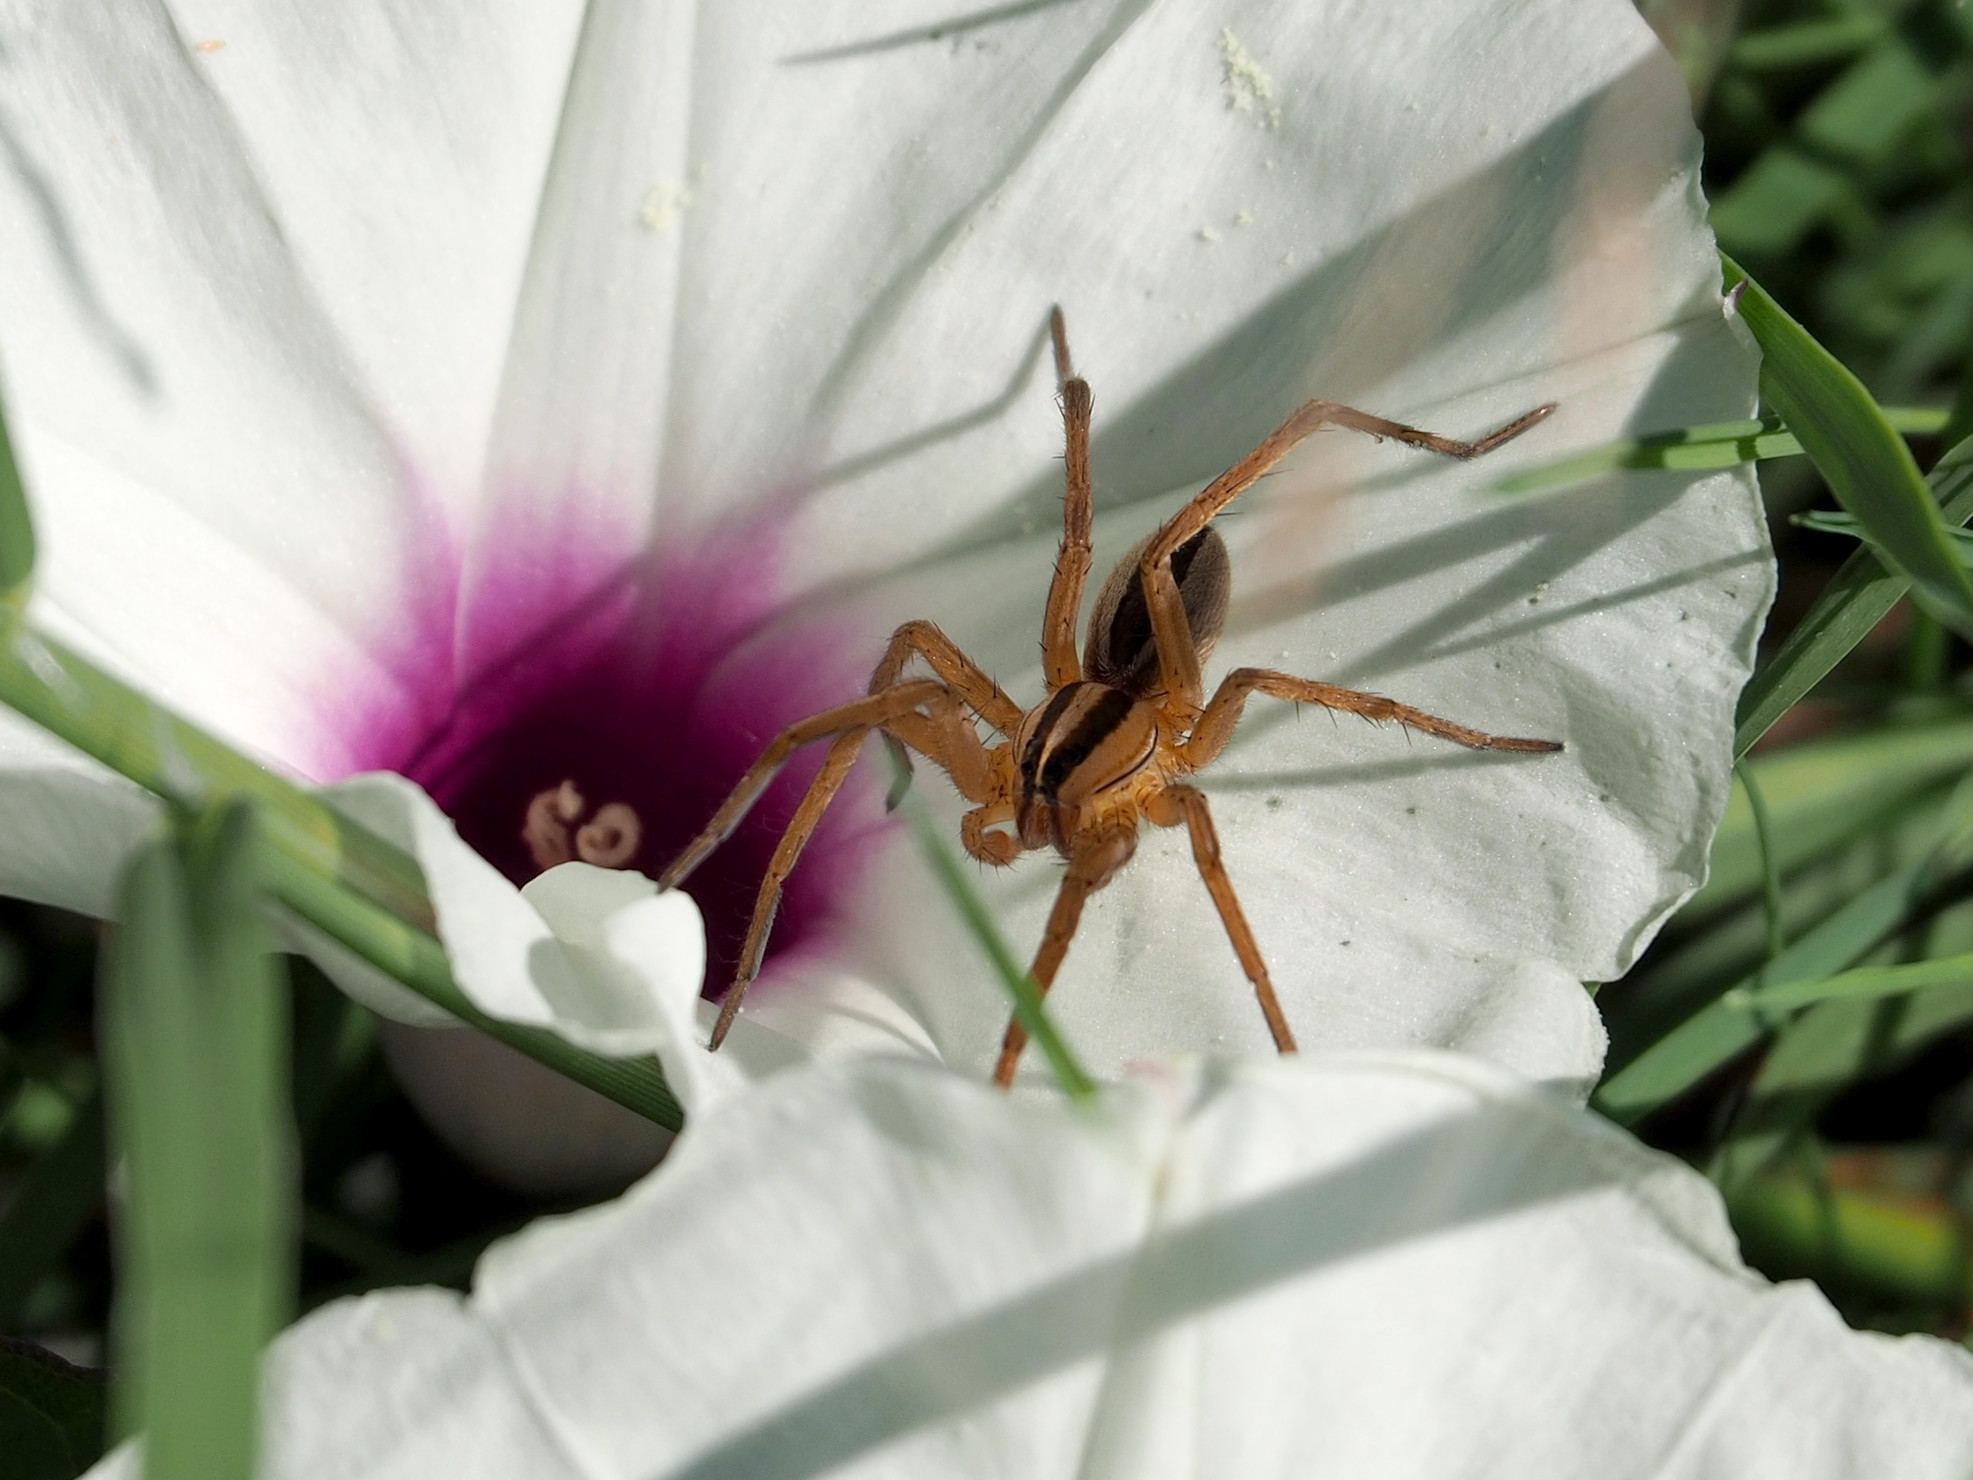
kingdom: Animalia
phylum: Arthropoda
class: Arachnida
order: Araneae
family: Lycosidae
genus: Rabidosa
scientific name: Rabidosa rabida
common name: Rabid wolf spider
